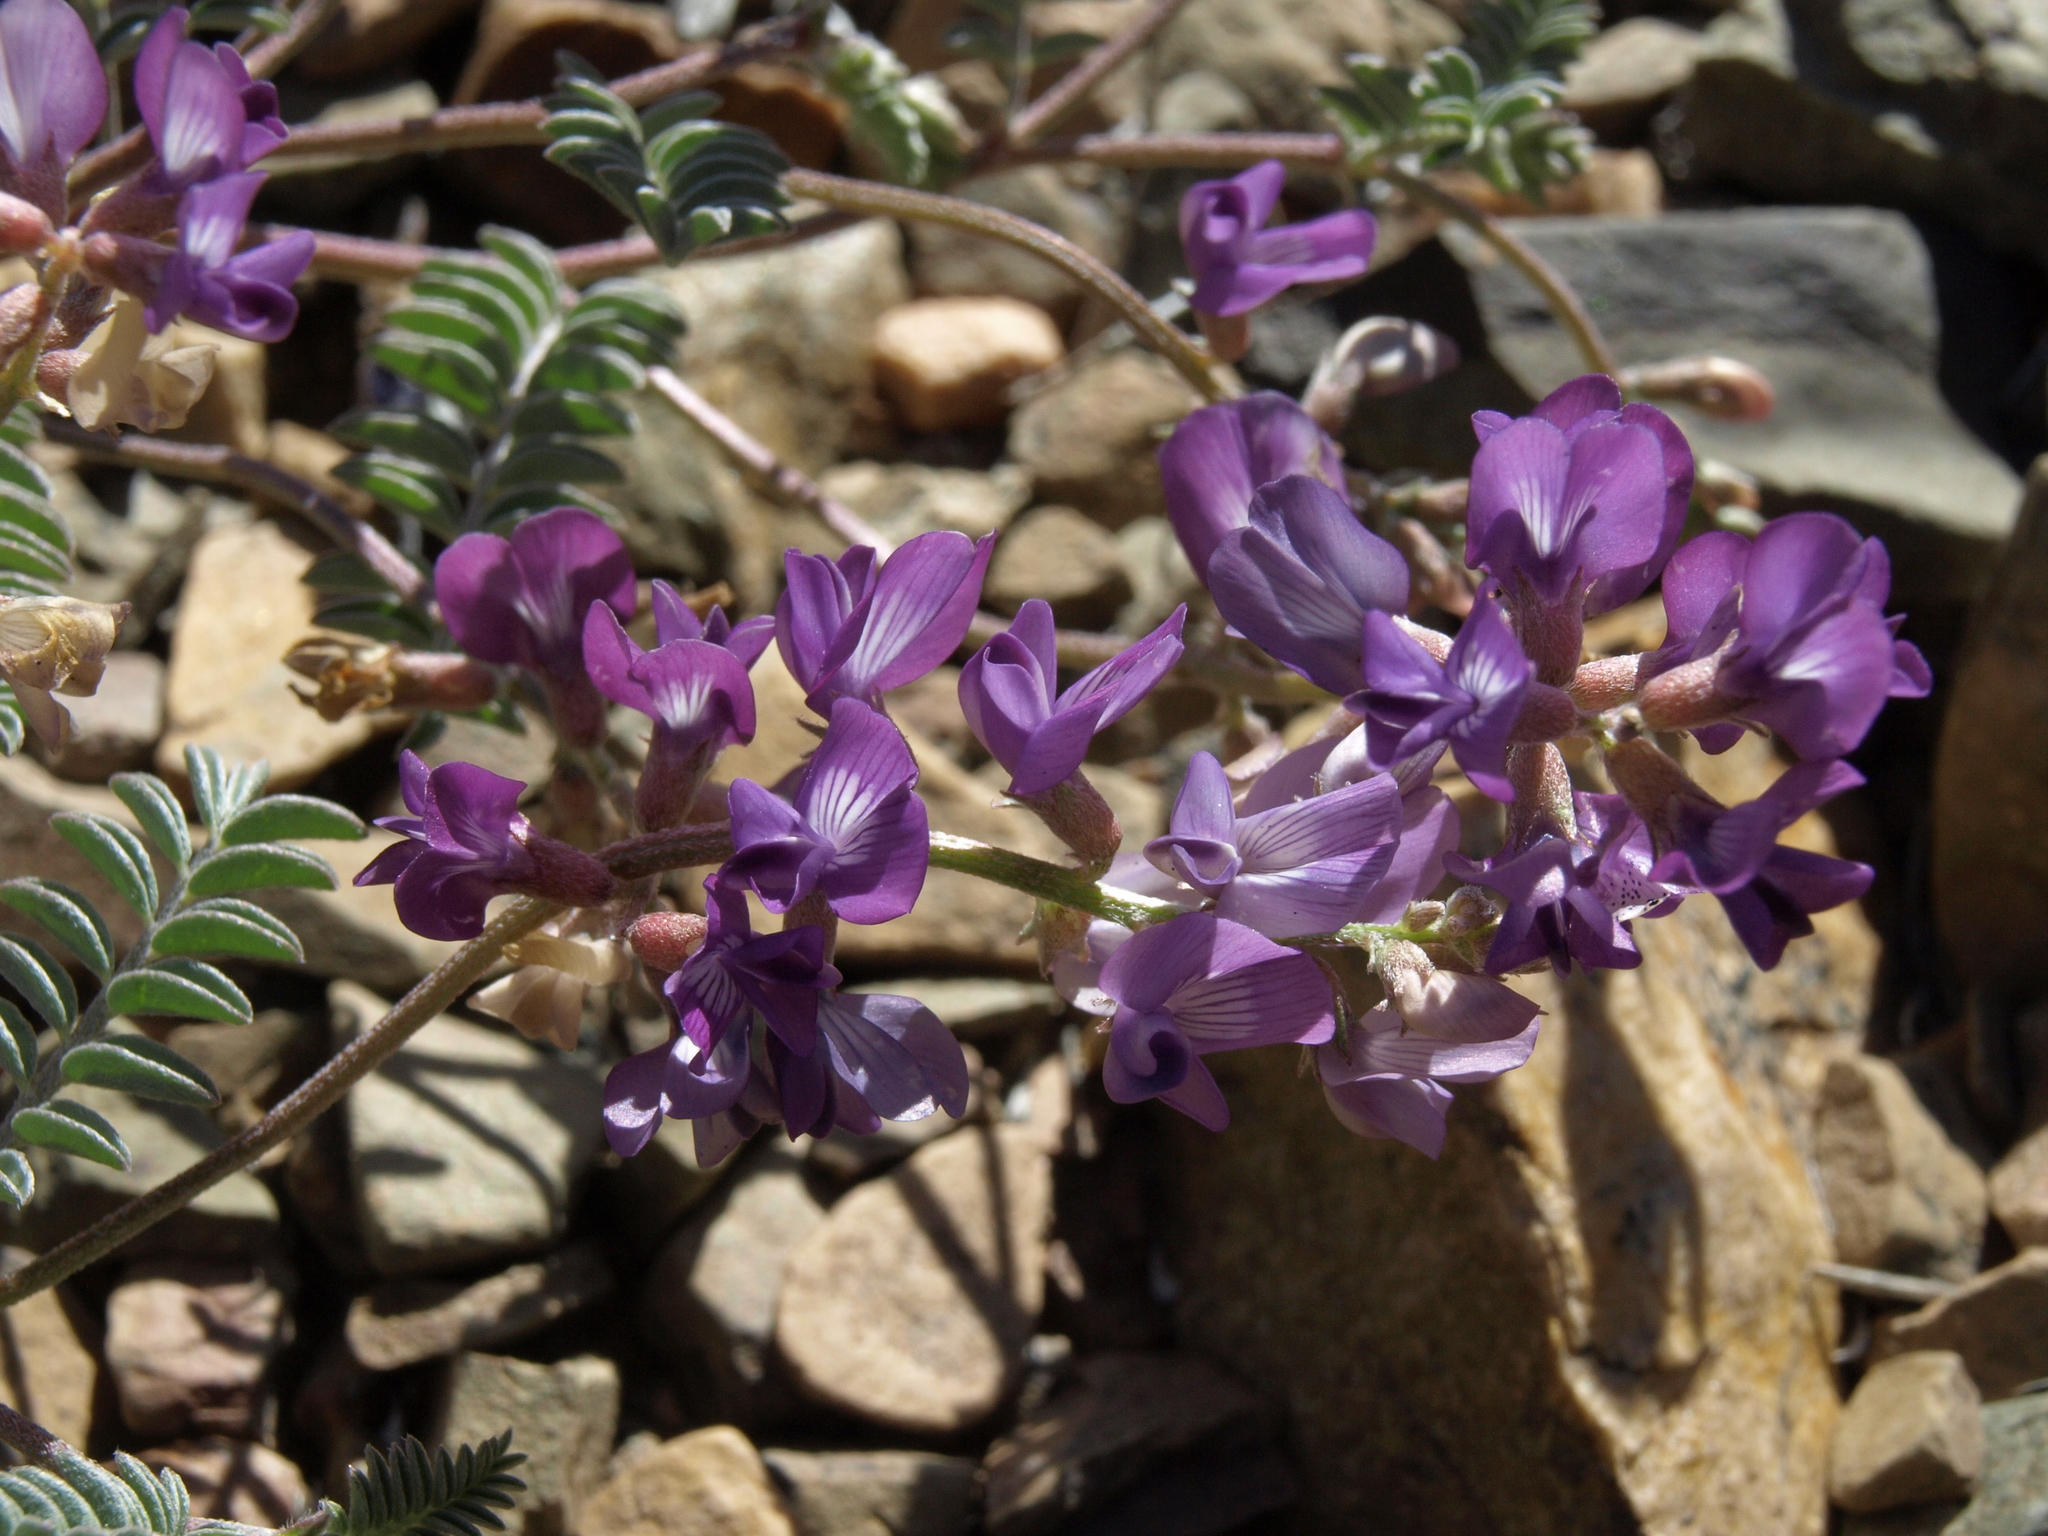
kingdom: Plantae
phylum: Tracheophyta
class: Magnoliopsida
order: Fabales
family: Fabaceae
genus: Astragalus
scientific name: Astragalus inyoensis
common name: Inyo locoweed
